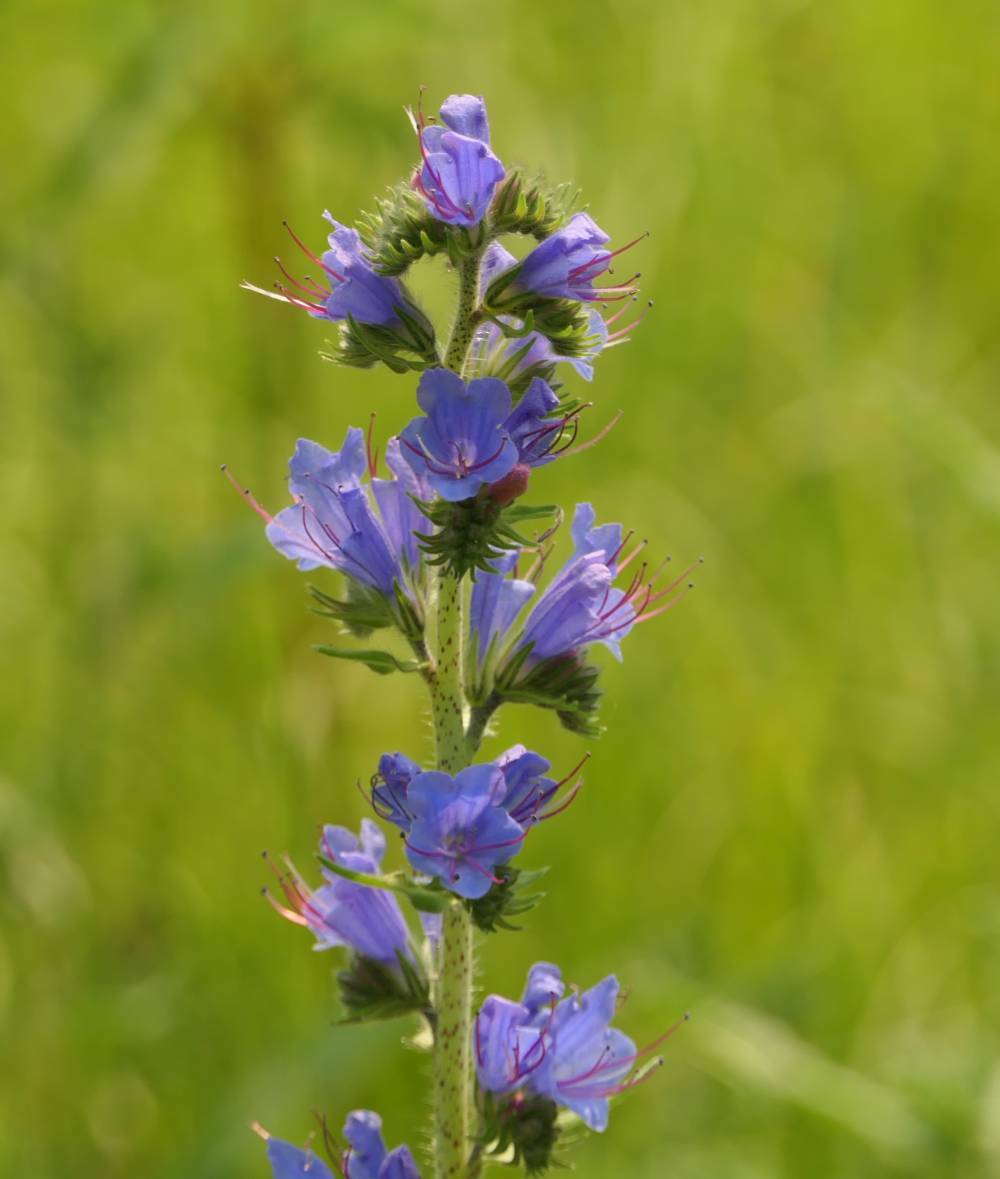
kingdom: Plantae
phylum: Tracheophyta
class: Magnoliopsida
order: Boraginales
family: Boraginaceae
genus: Echium
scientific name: Echium vulgare
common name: Common viper's bugloss
